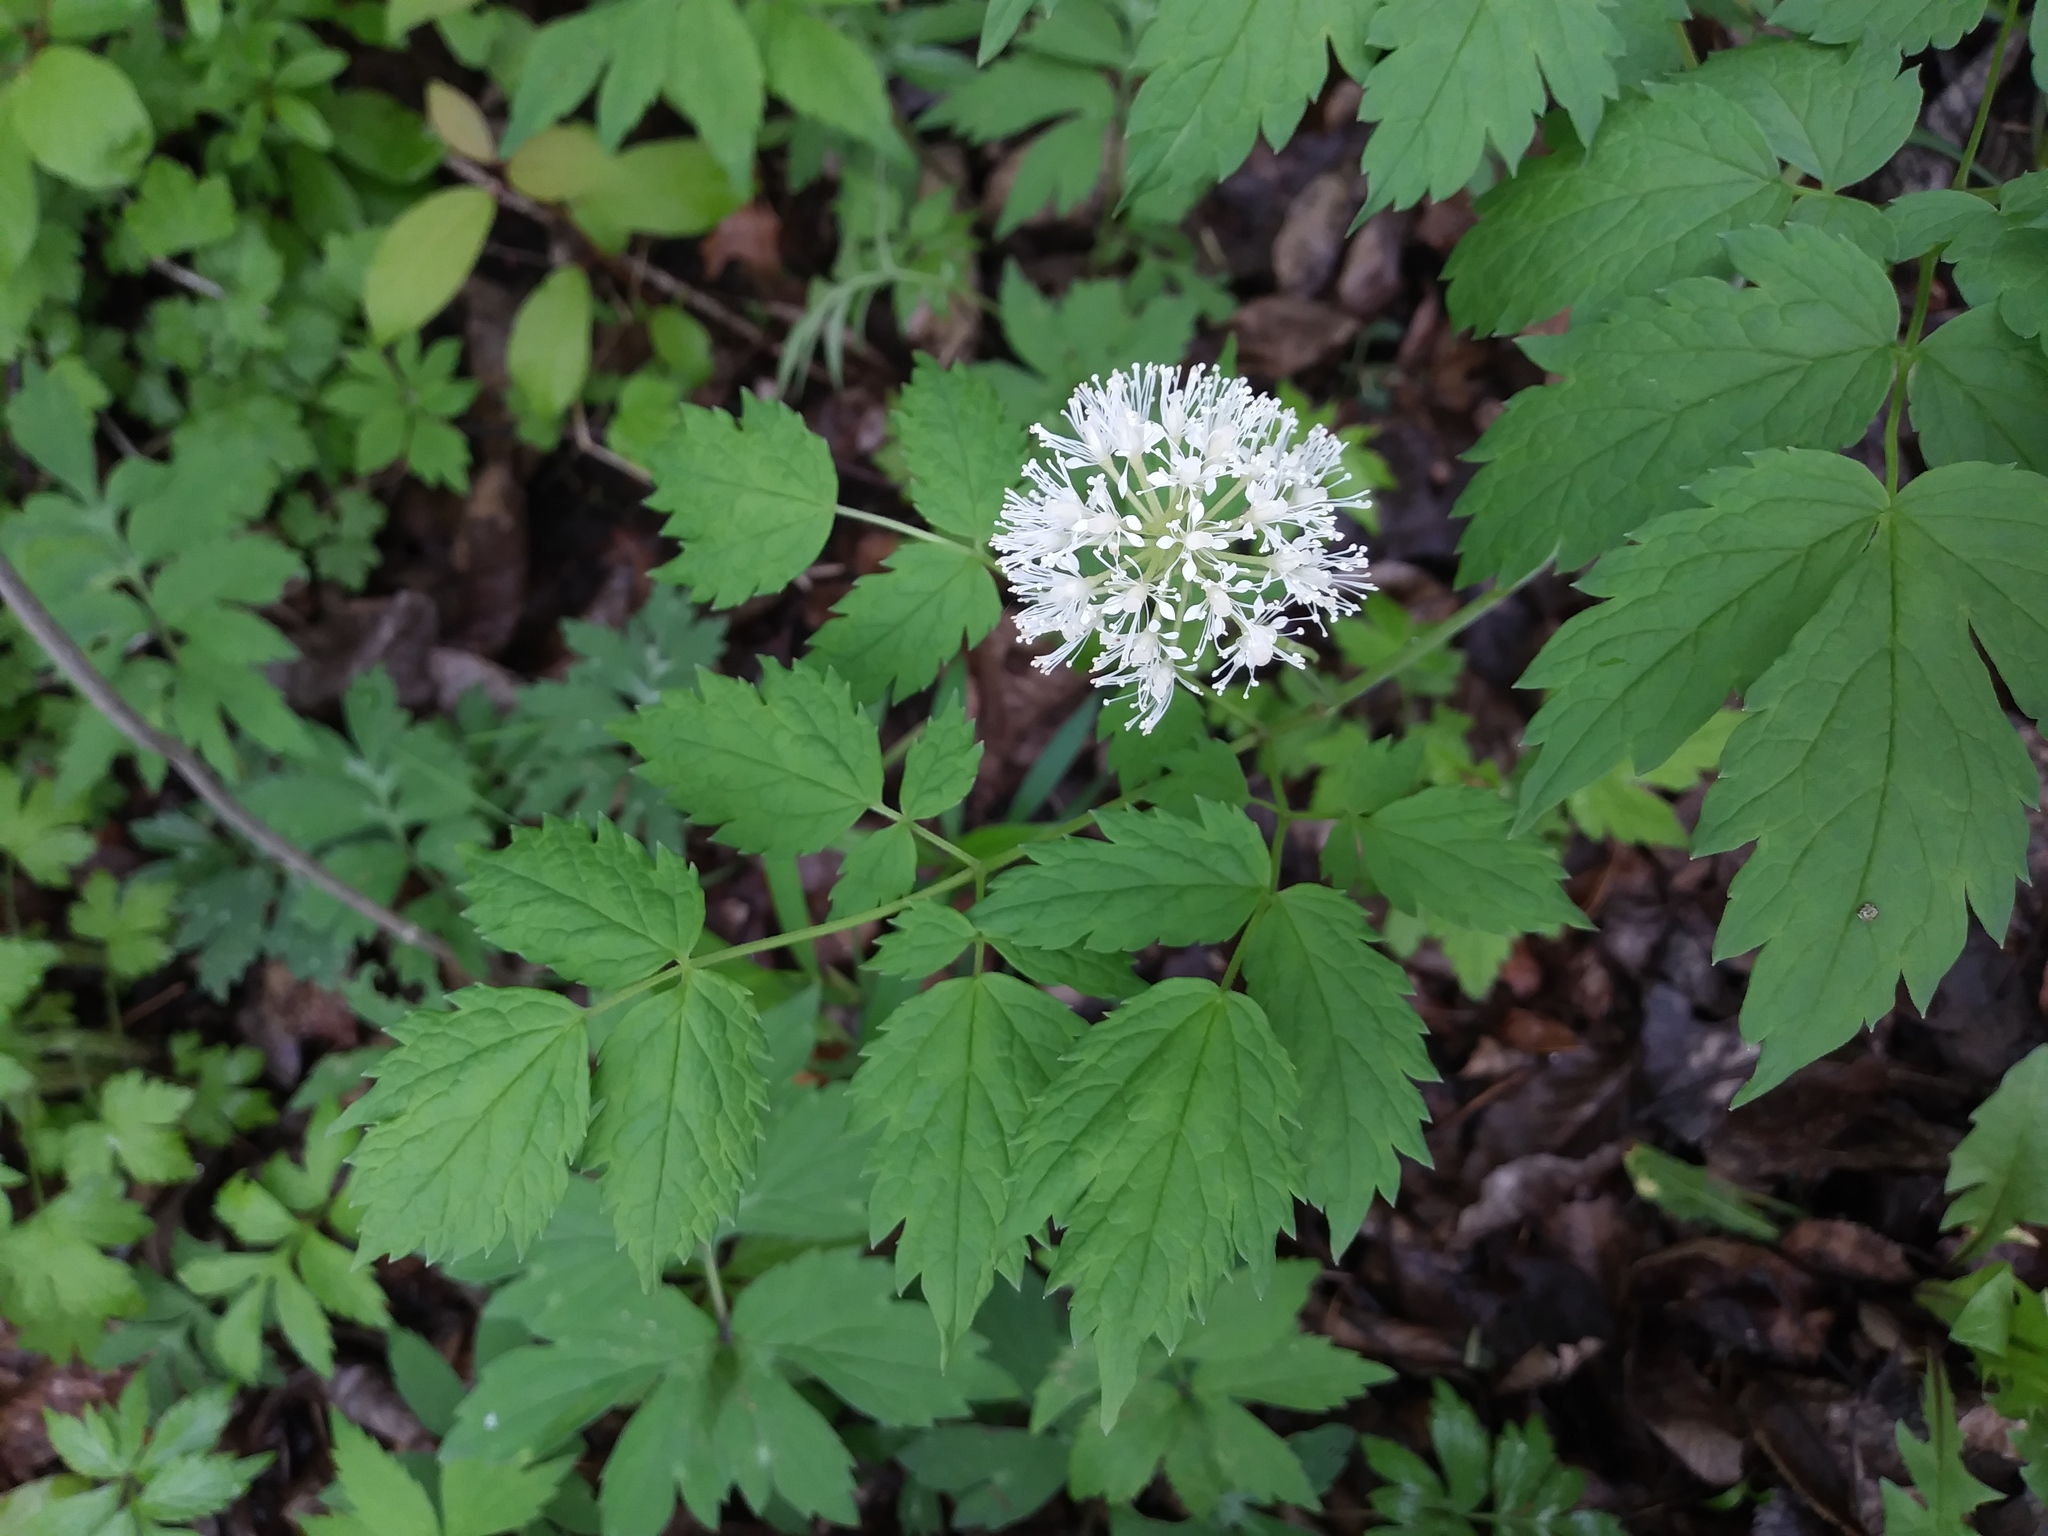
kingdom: Plantae
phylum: Tracheophyta
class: Magnoliopsida
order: Ranunculales
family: Ranunculaceae
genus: Actaea
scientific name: Actaea rubra
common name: Red baneberry
